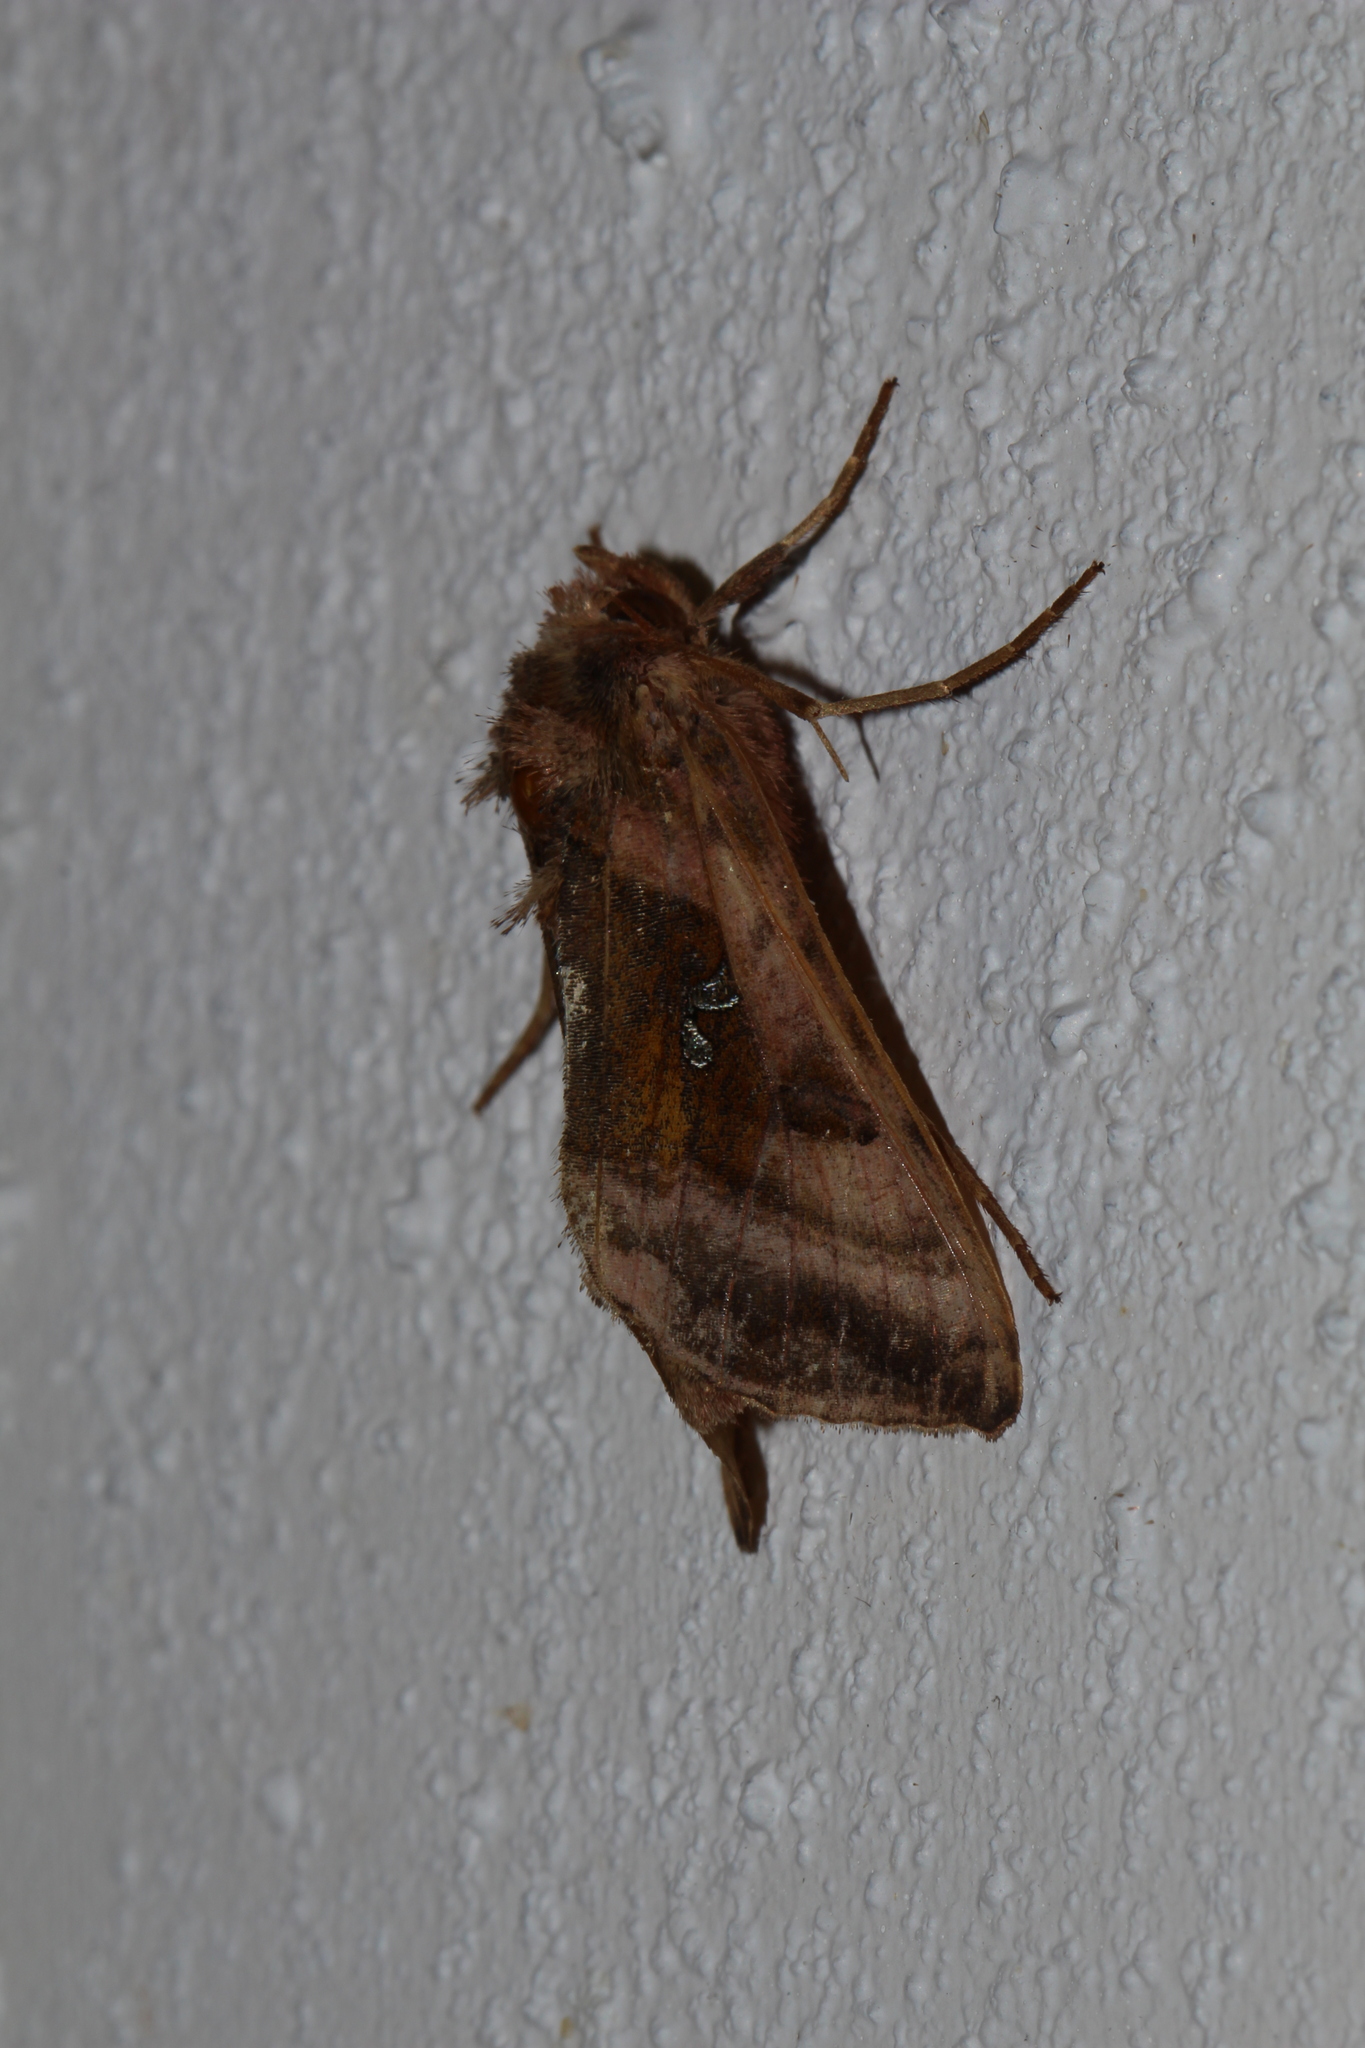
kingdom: Animalia
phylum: Arthropoda
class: Insecta
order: Lepidoptera
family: Noctuidae
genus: Autographa
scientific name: Autographa jota
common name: Plain golden y
